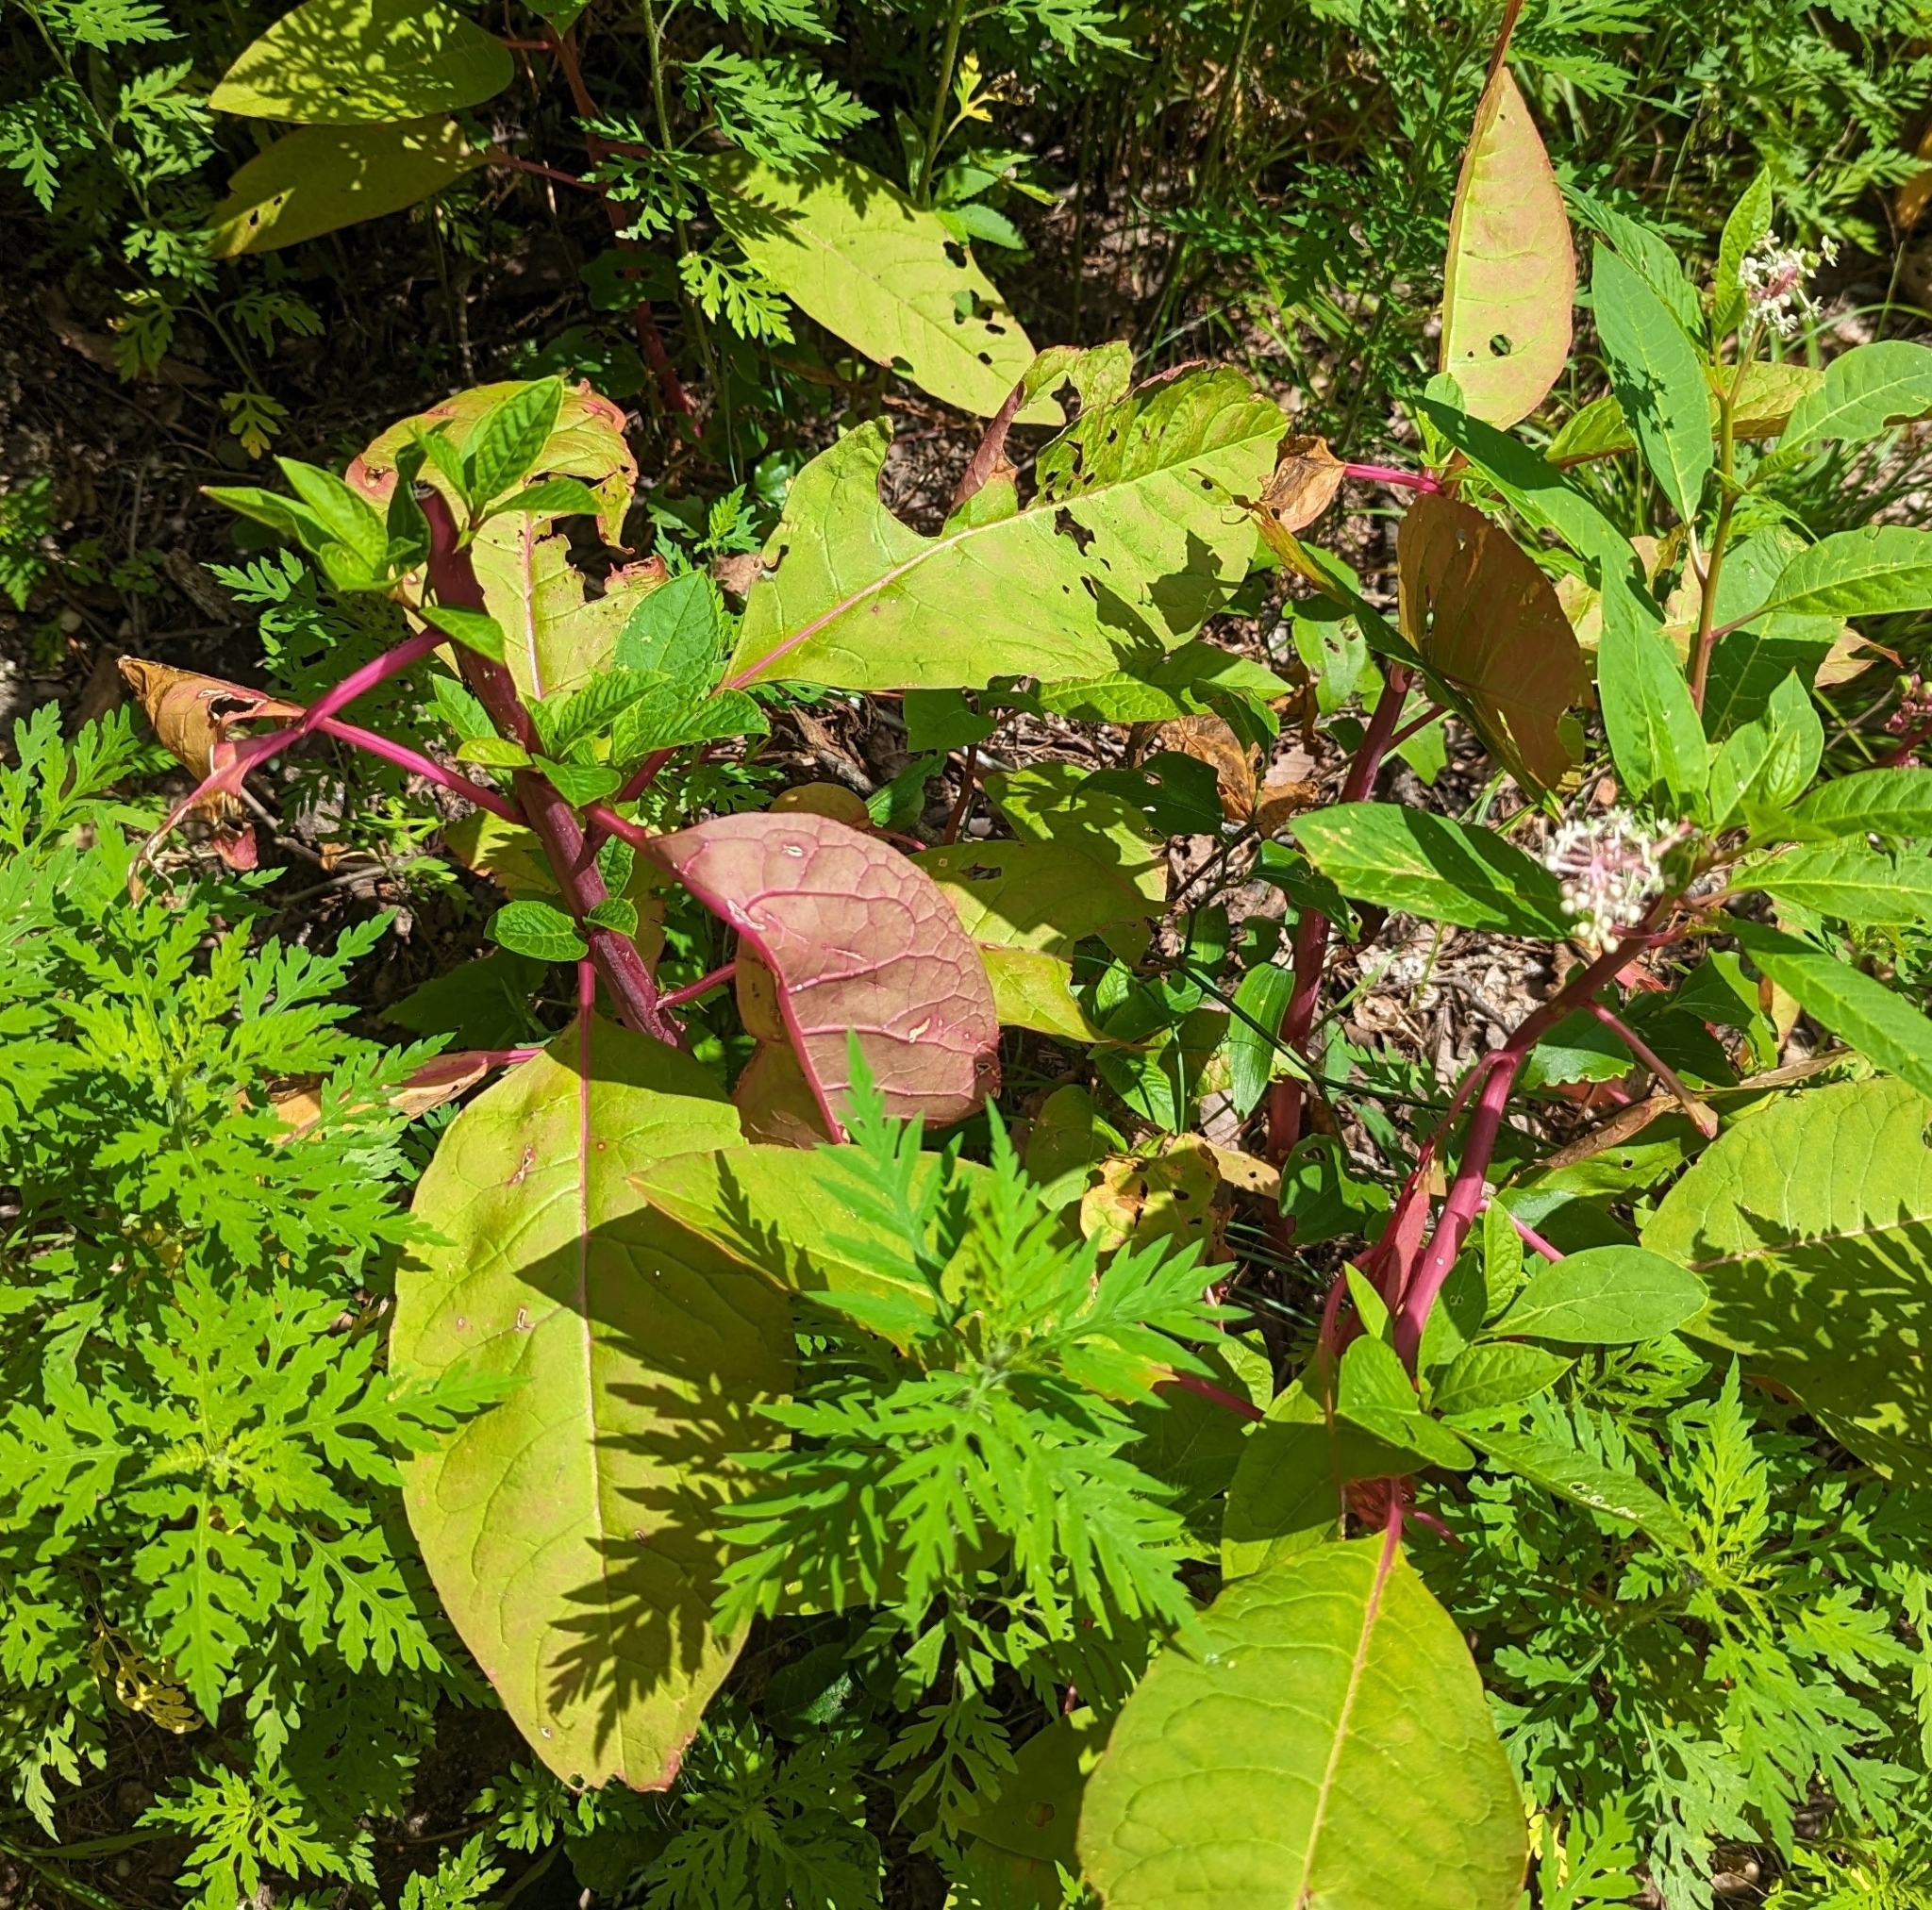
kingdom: Plantae
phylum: Tracheophyta
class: Magnoliopsida
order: Caryophyllales
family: Phytolaccaceae
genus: Phytolacca
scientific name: Phytolacca americana
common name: American pokeweed
